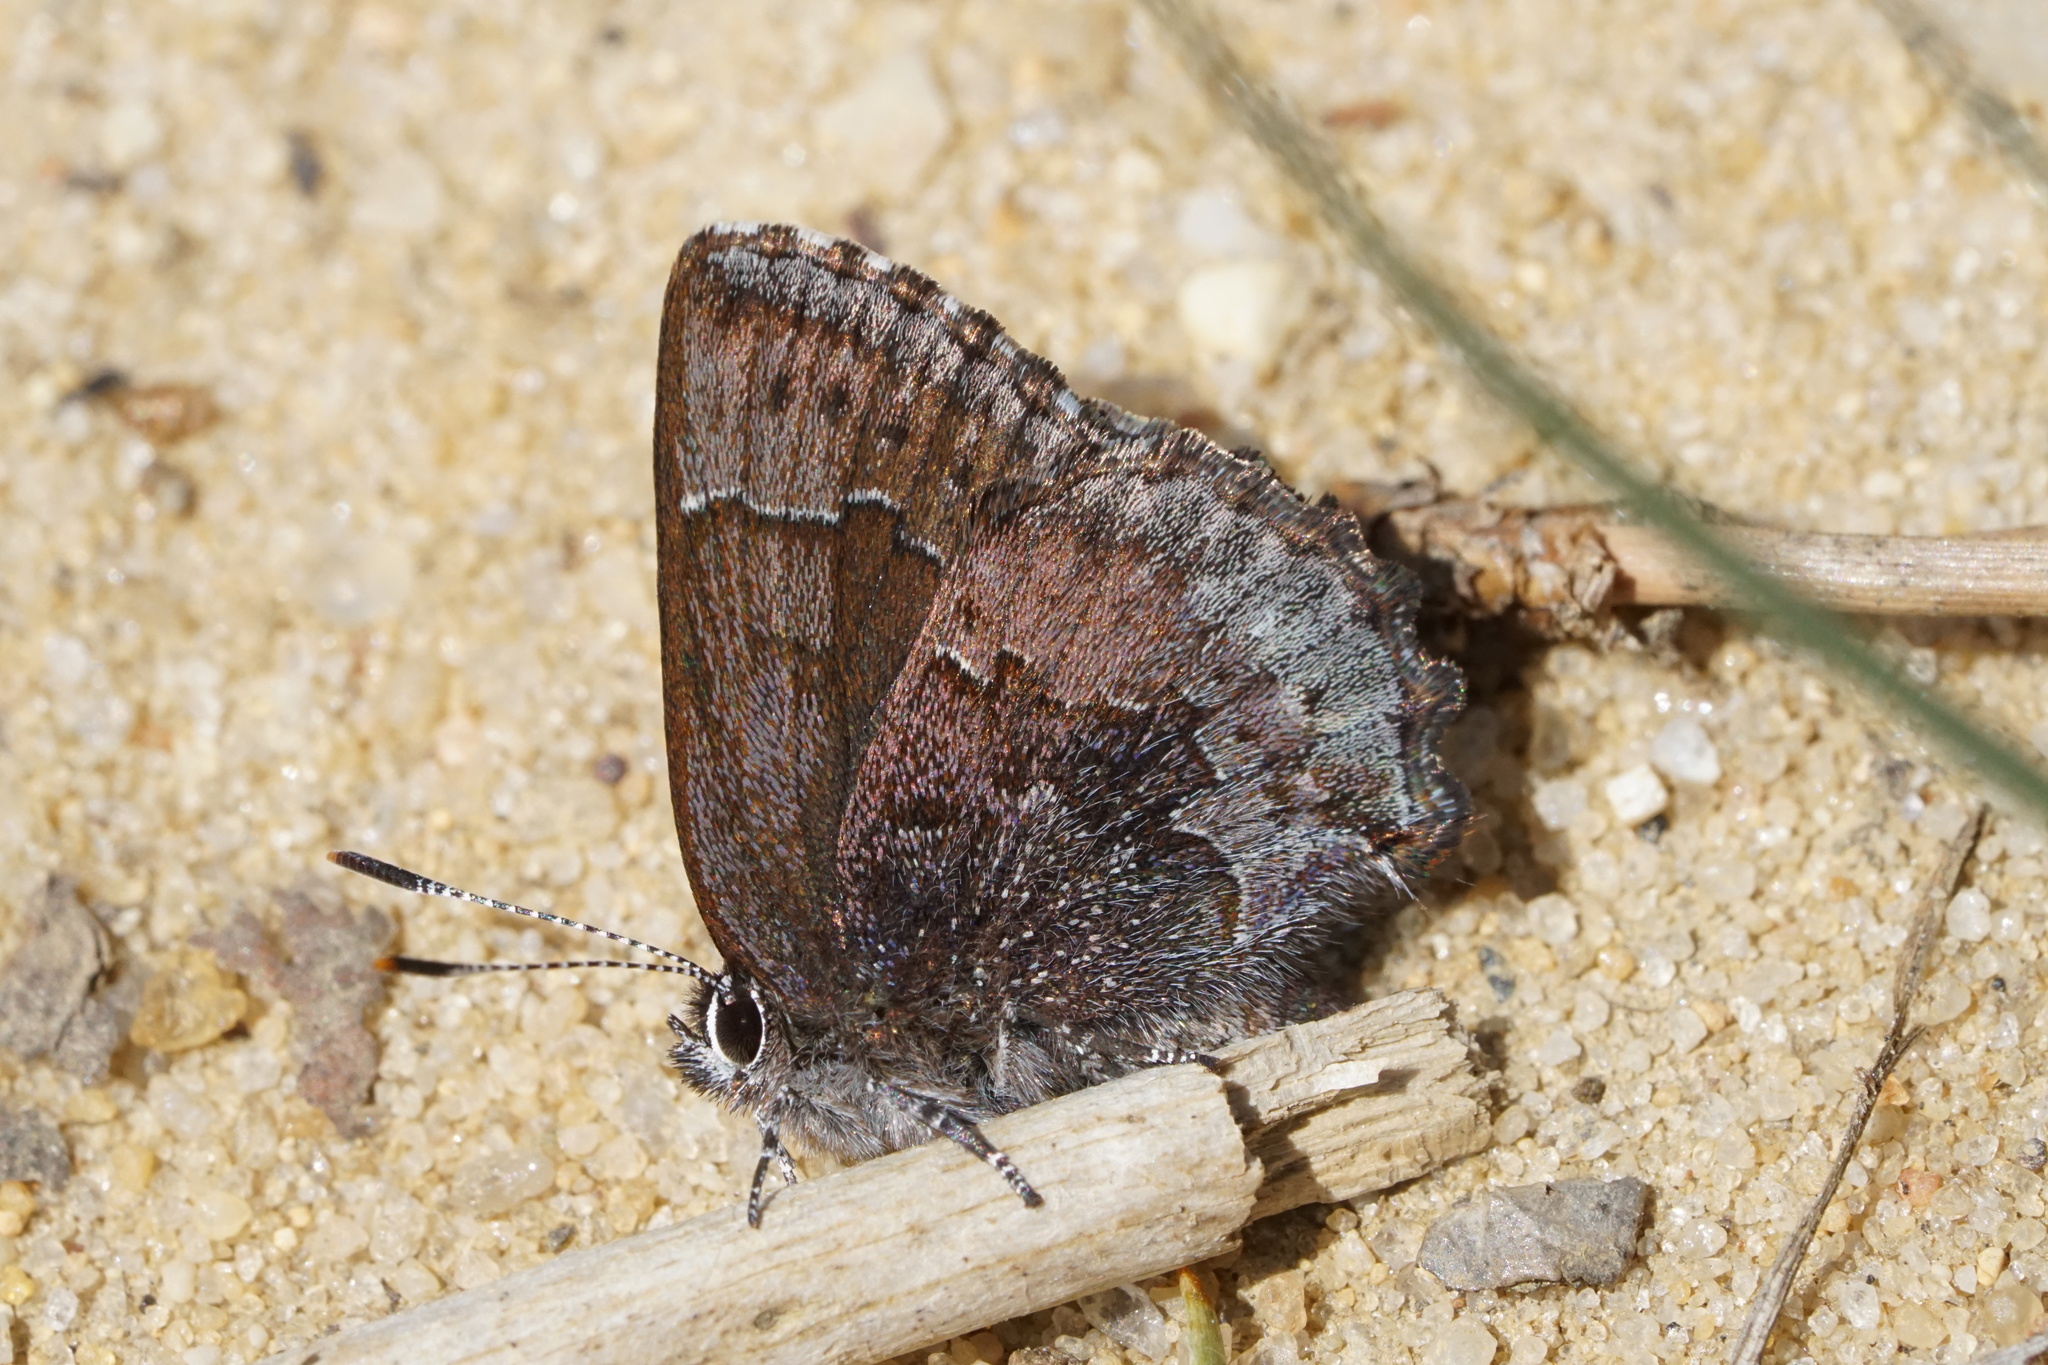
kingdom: Animalia
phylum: Arthropoda
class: Insecta
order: Lepidoptera
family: Lycaenidae
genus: Callophrys
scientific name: Callophrys polios
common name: Hoary elfin
